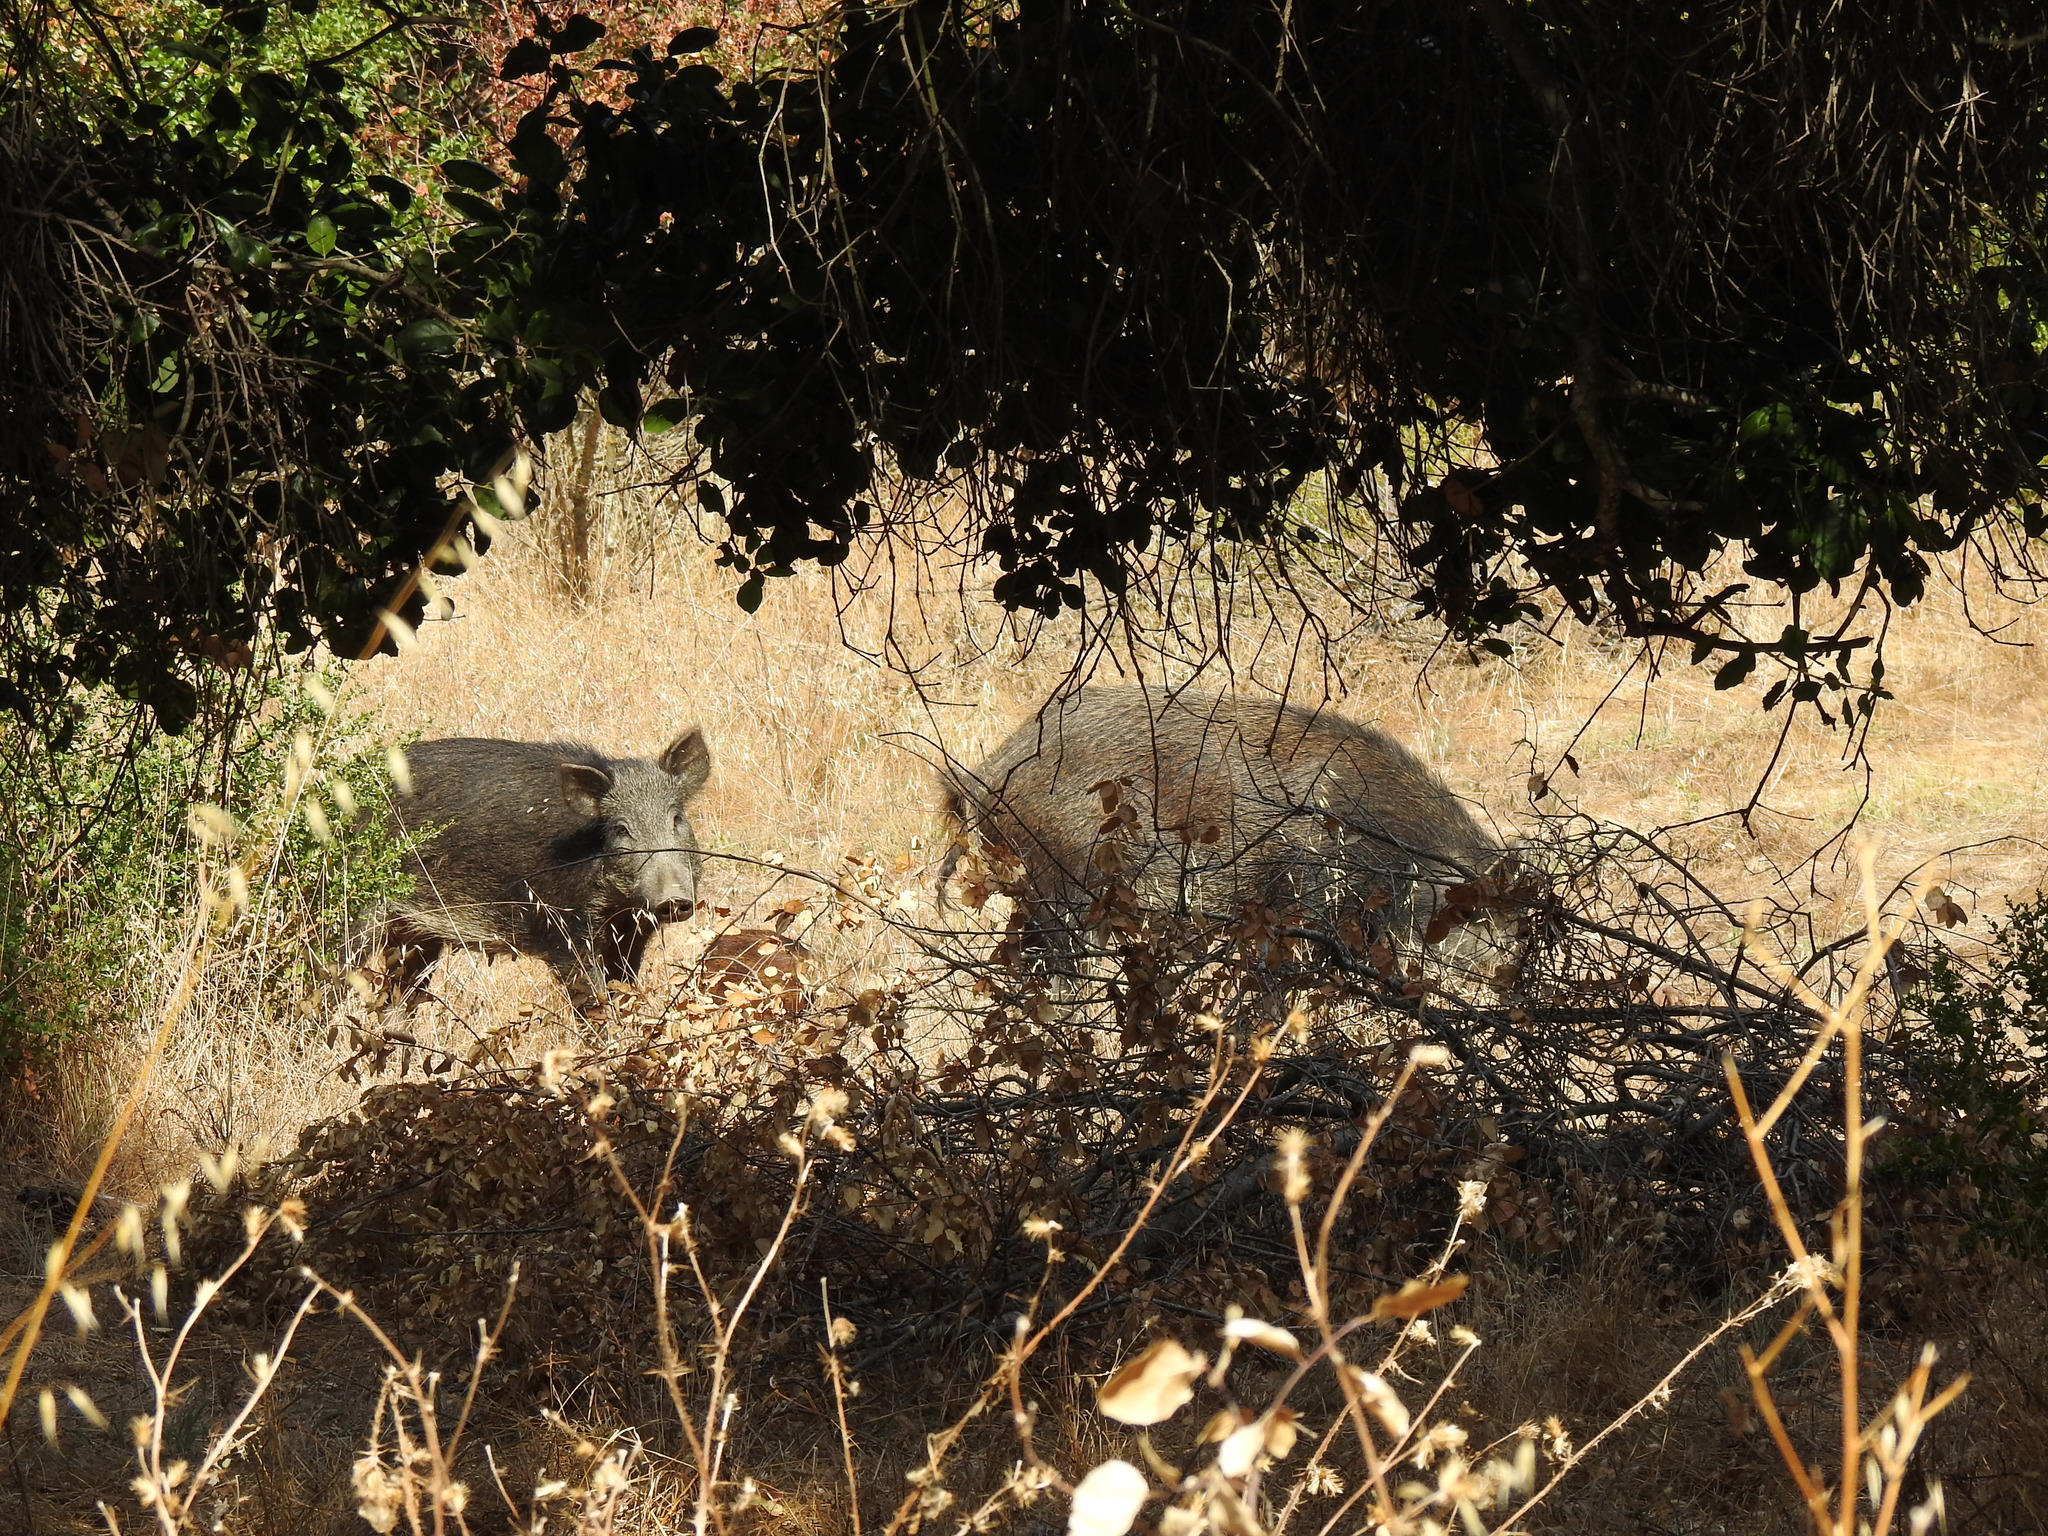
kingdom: Animalia
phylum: Chordata
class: Mammalia
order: Artiodactyla
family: Suidae
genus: Sus
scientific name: Sus scrofa
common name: Wild boar
